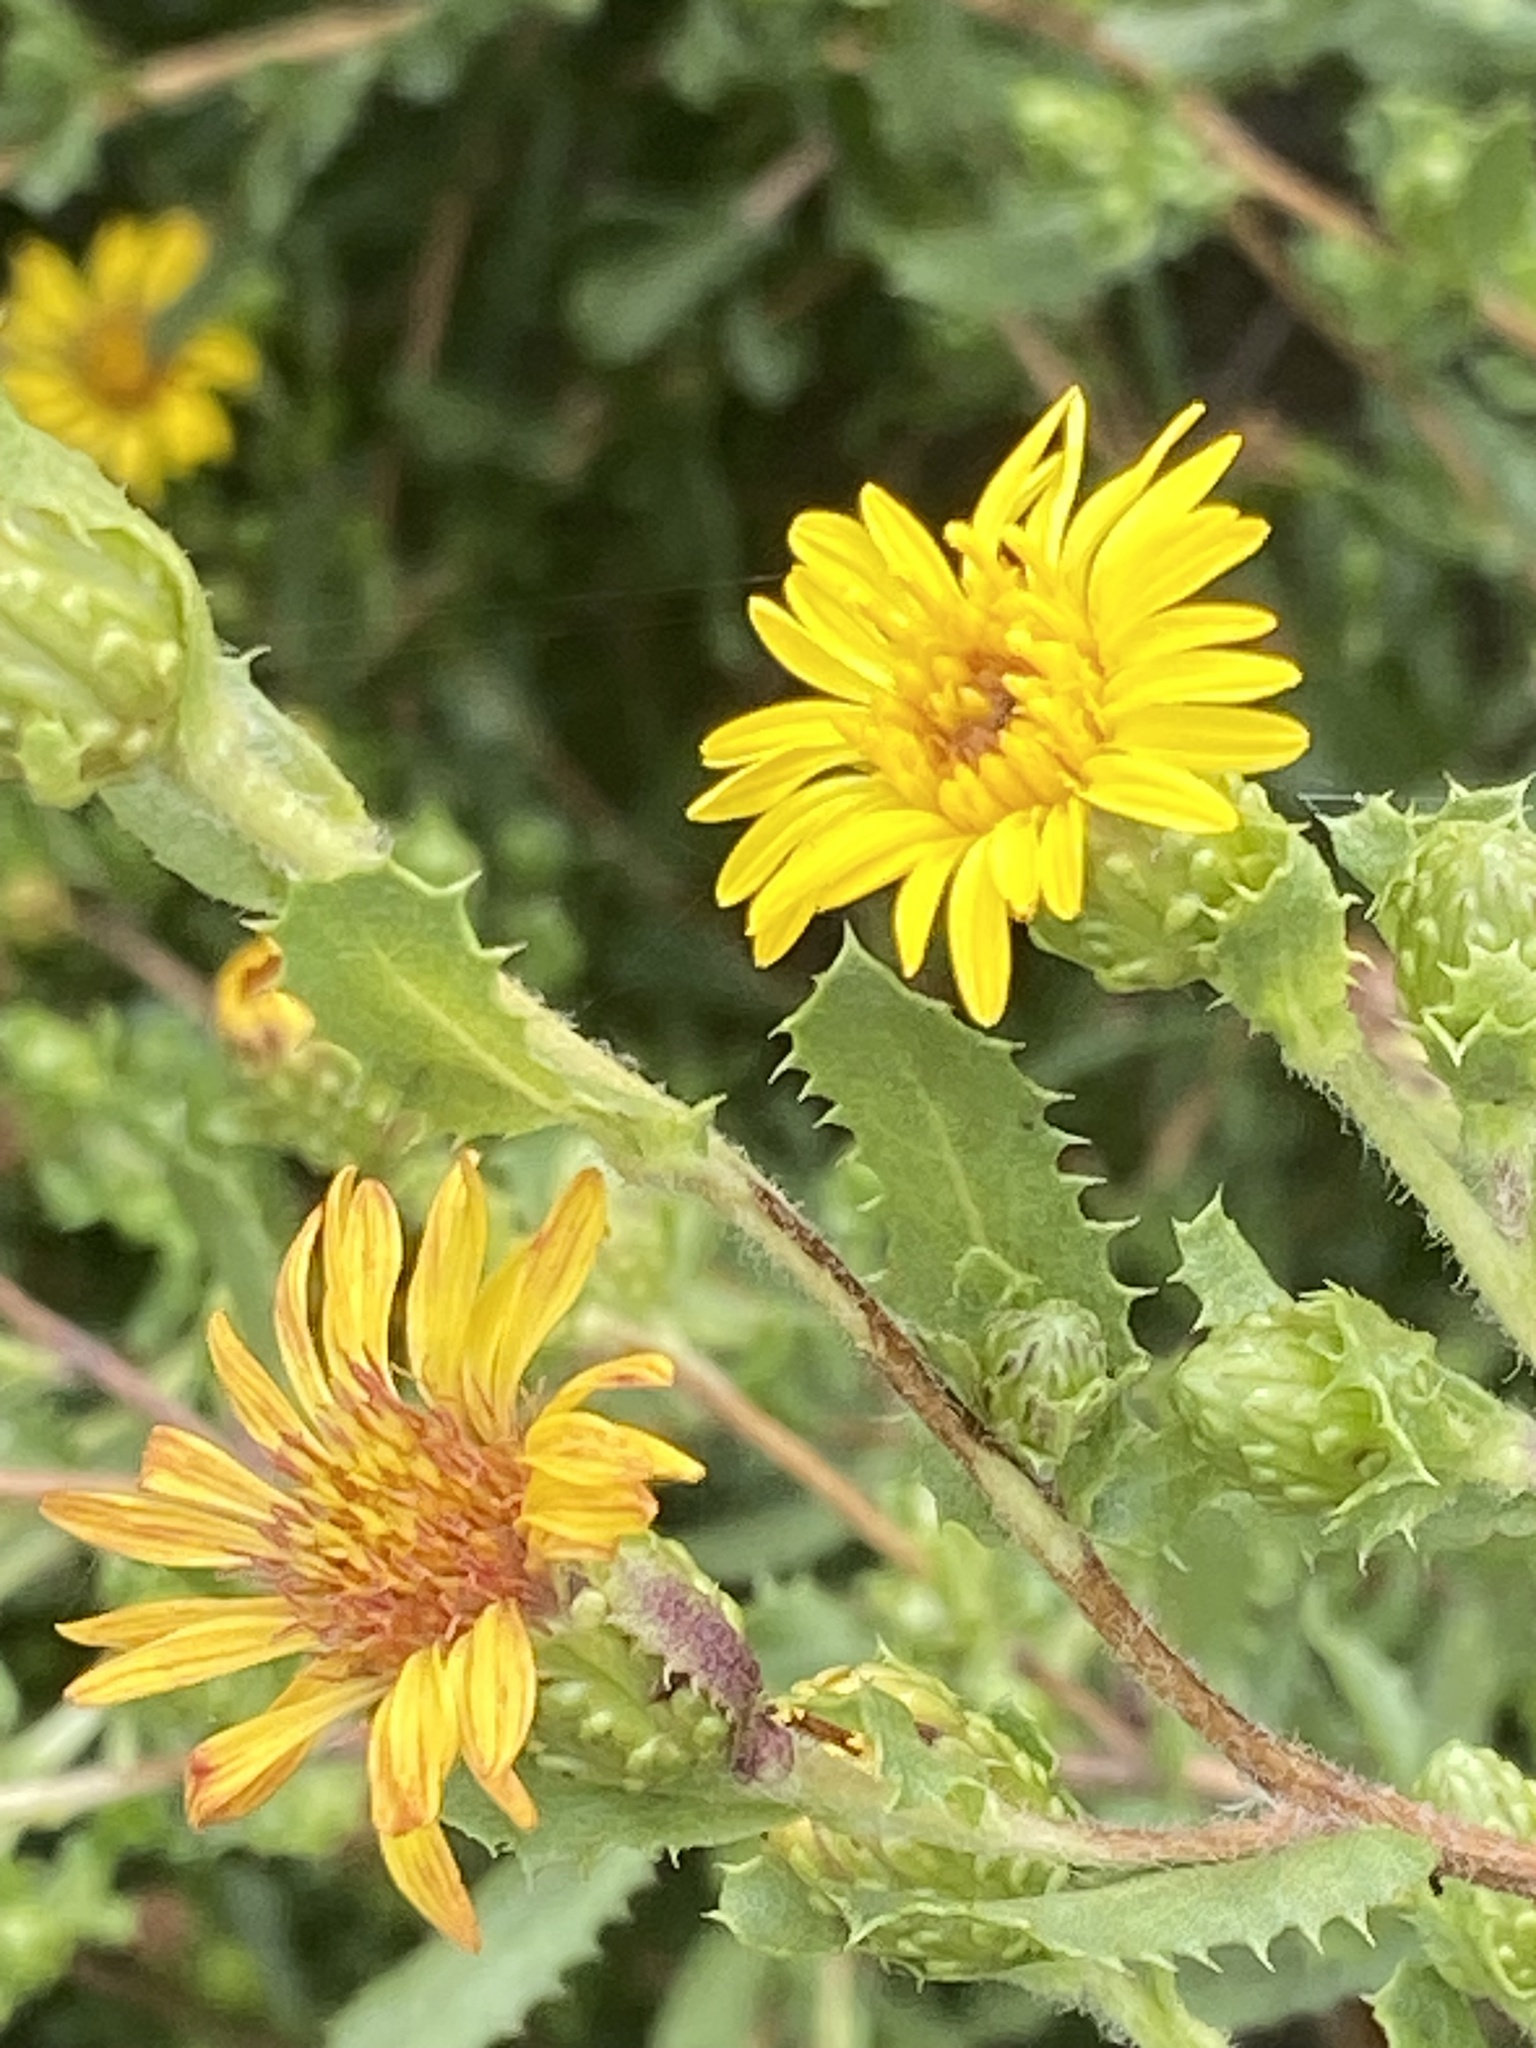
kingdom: Plantae
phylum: Tracheophyta
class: Magnoliopsida
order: Asterales
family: Asteraceae
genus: Hazardia
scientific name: Hazardia berberidis
